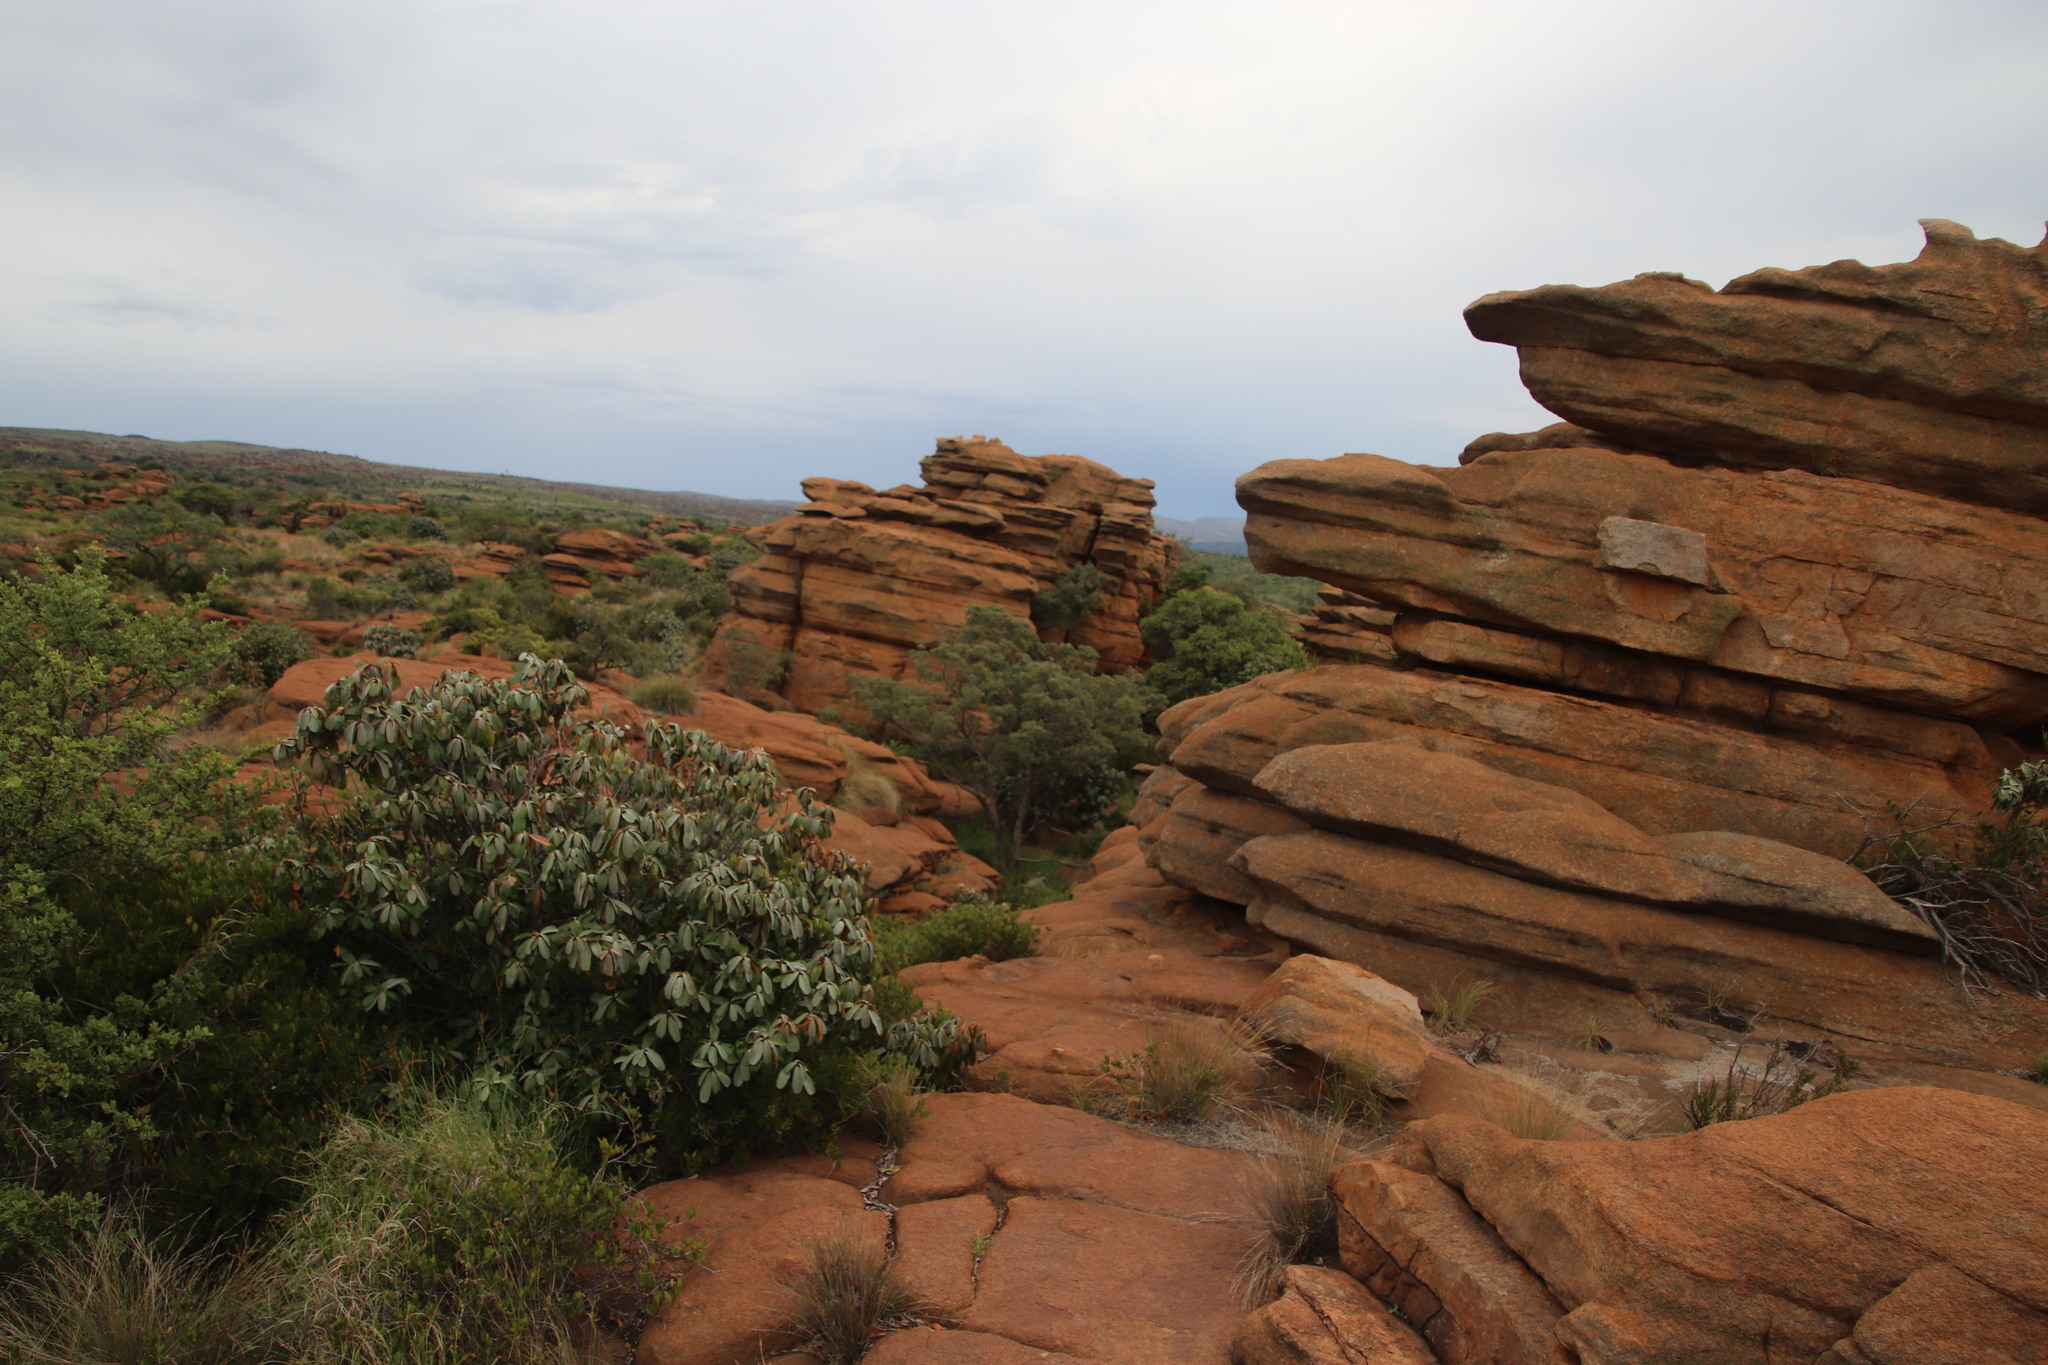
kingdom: Plantae
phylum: Tracheophyta
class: Magnoliopsida
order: Ericales
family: Sapotaceae
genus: Mimusops
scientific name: Mimusops zeyheri
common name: Transvaal red milkwood
